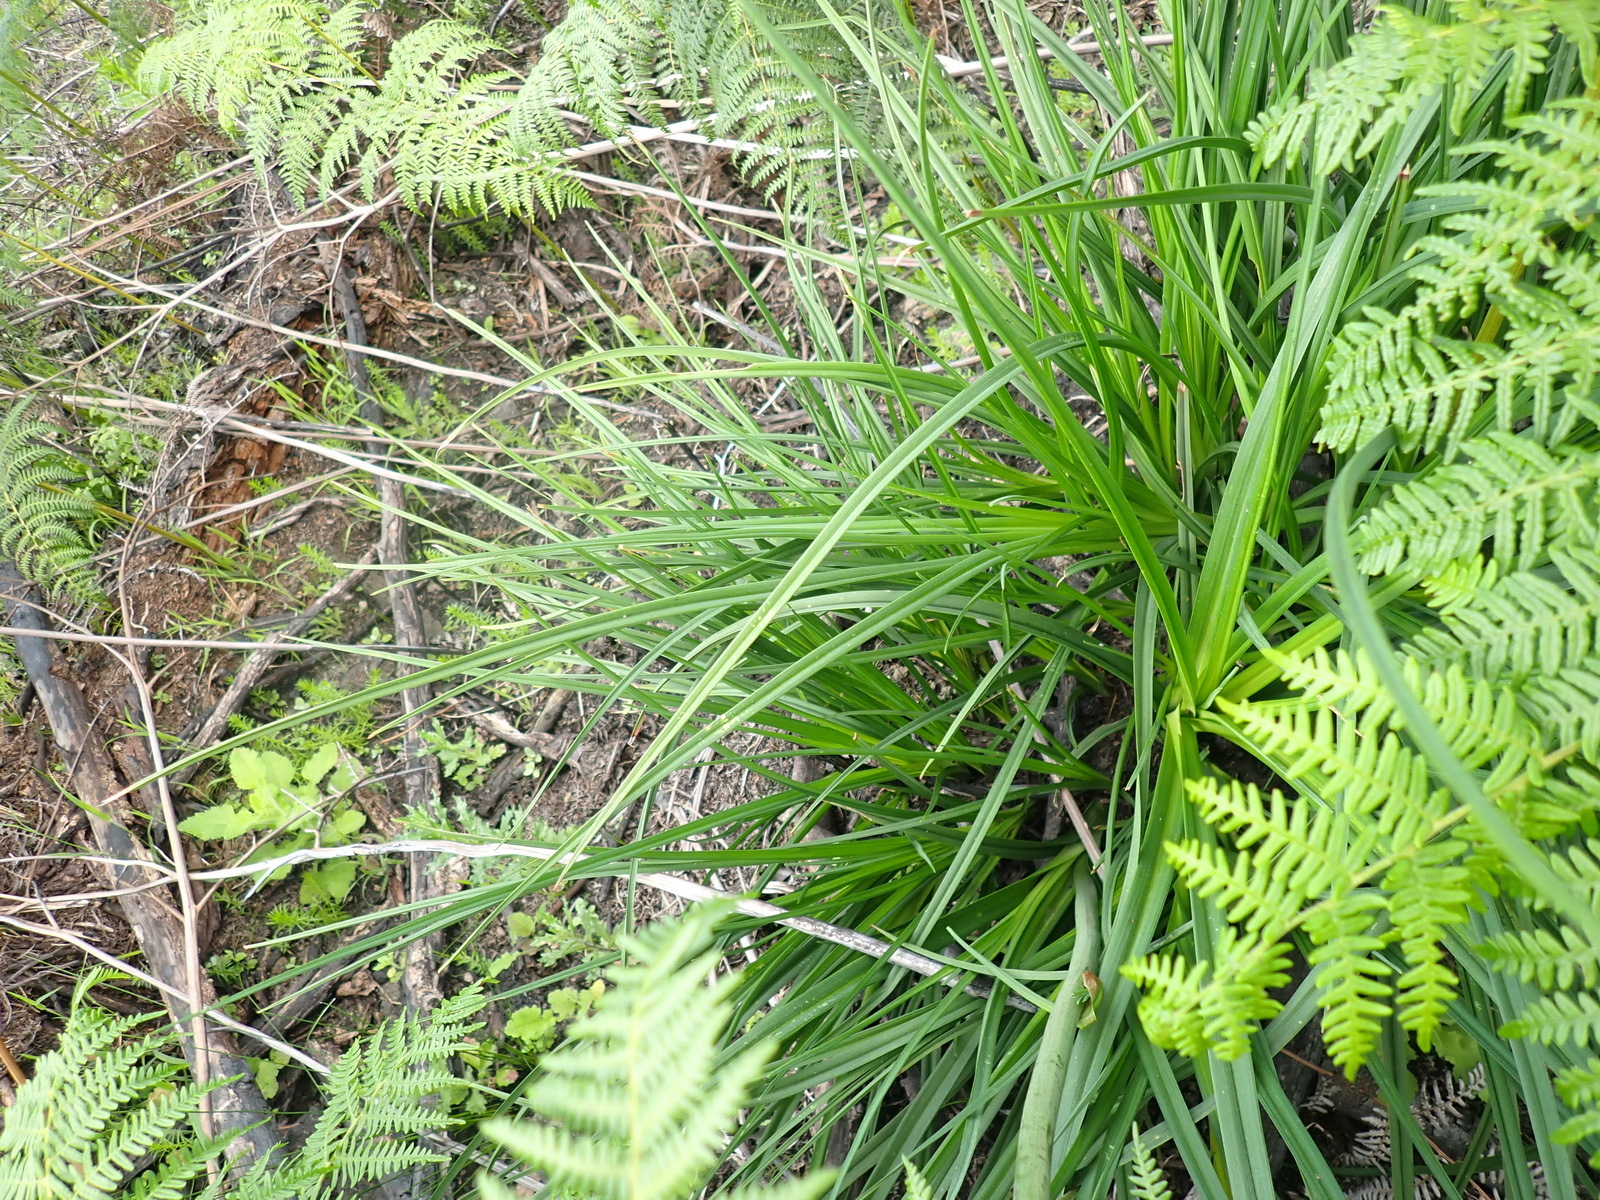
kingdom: Plantae
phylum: Tracheophyta
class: Liliopsida
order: Asparagales
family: Asphodelaceae
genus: Kniphofia
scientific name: Kniphofia uvaria
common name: Red-hot-poker
